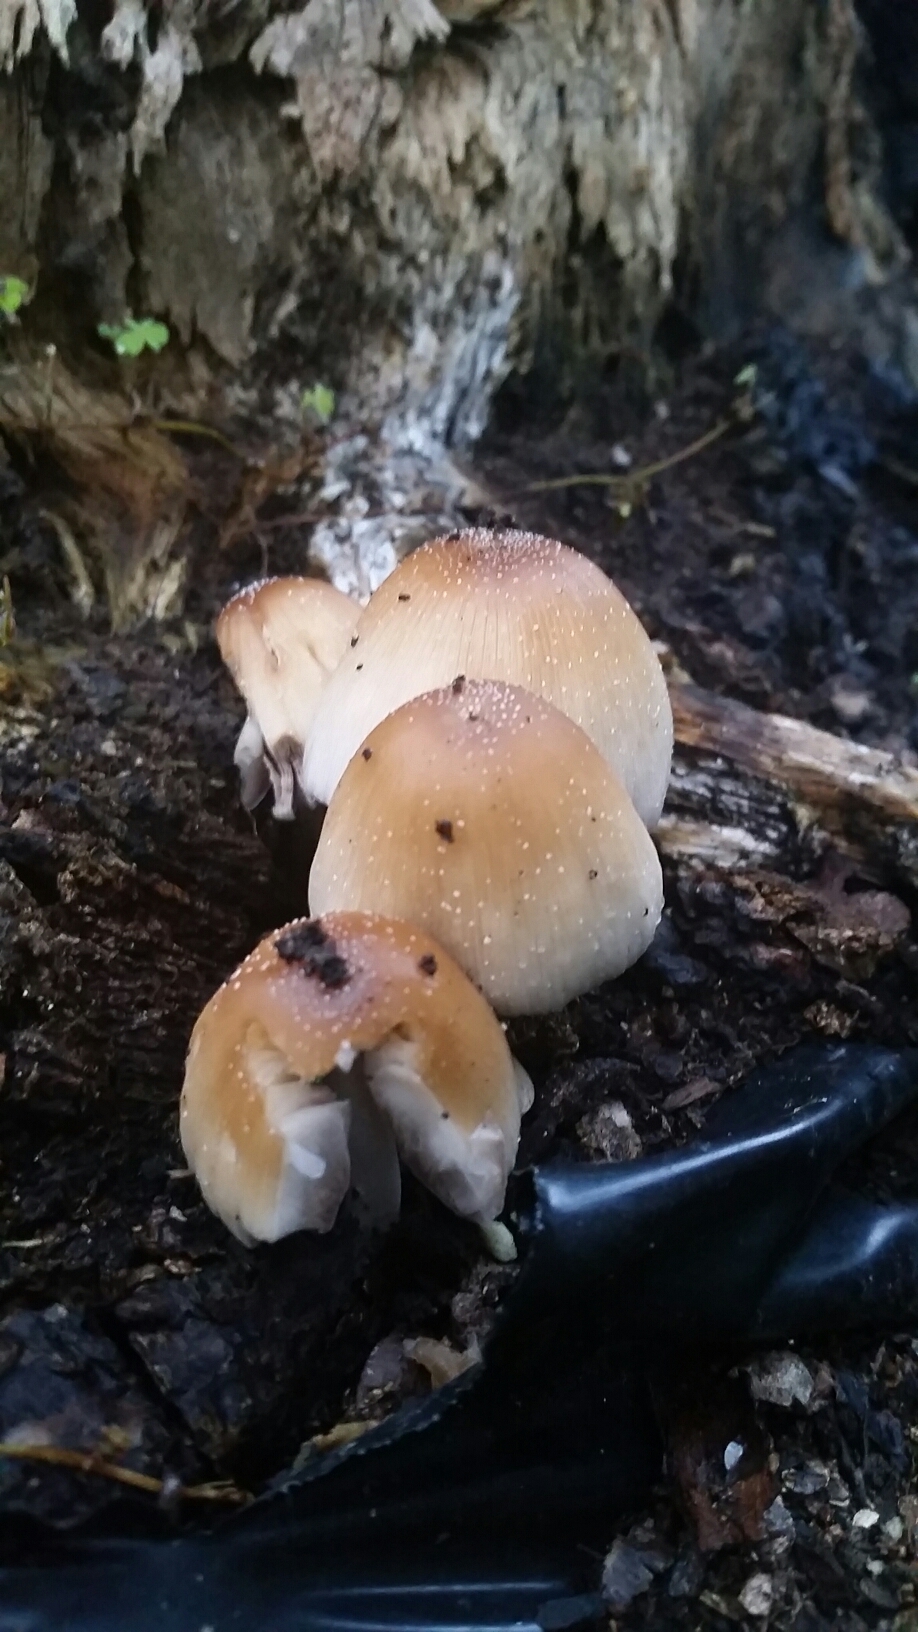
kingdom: Fungi
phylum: Basidiomycota
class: Agaricomycetes
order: Agaricales
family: Psathyrellaceae
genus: Coprinellus
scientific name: Coprinellus micaceus
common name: Glistening ink-cap
